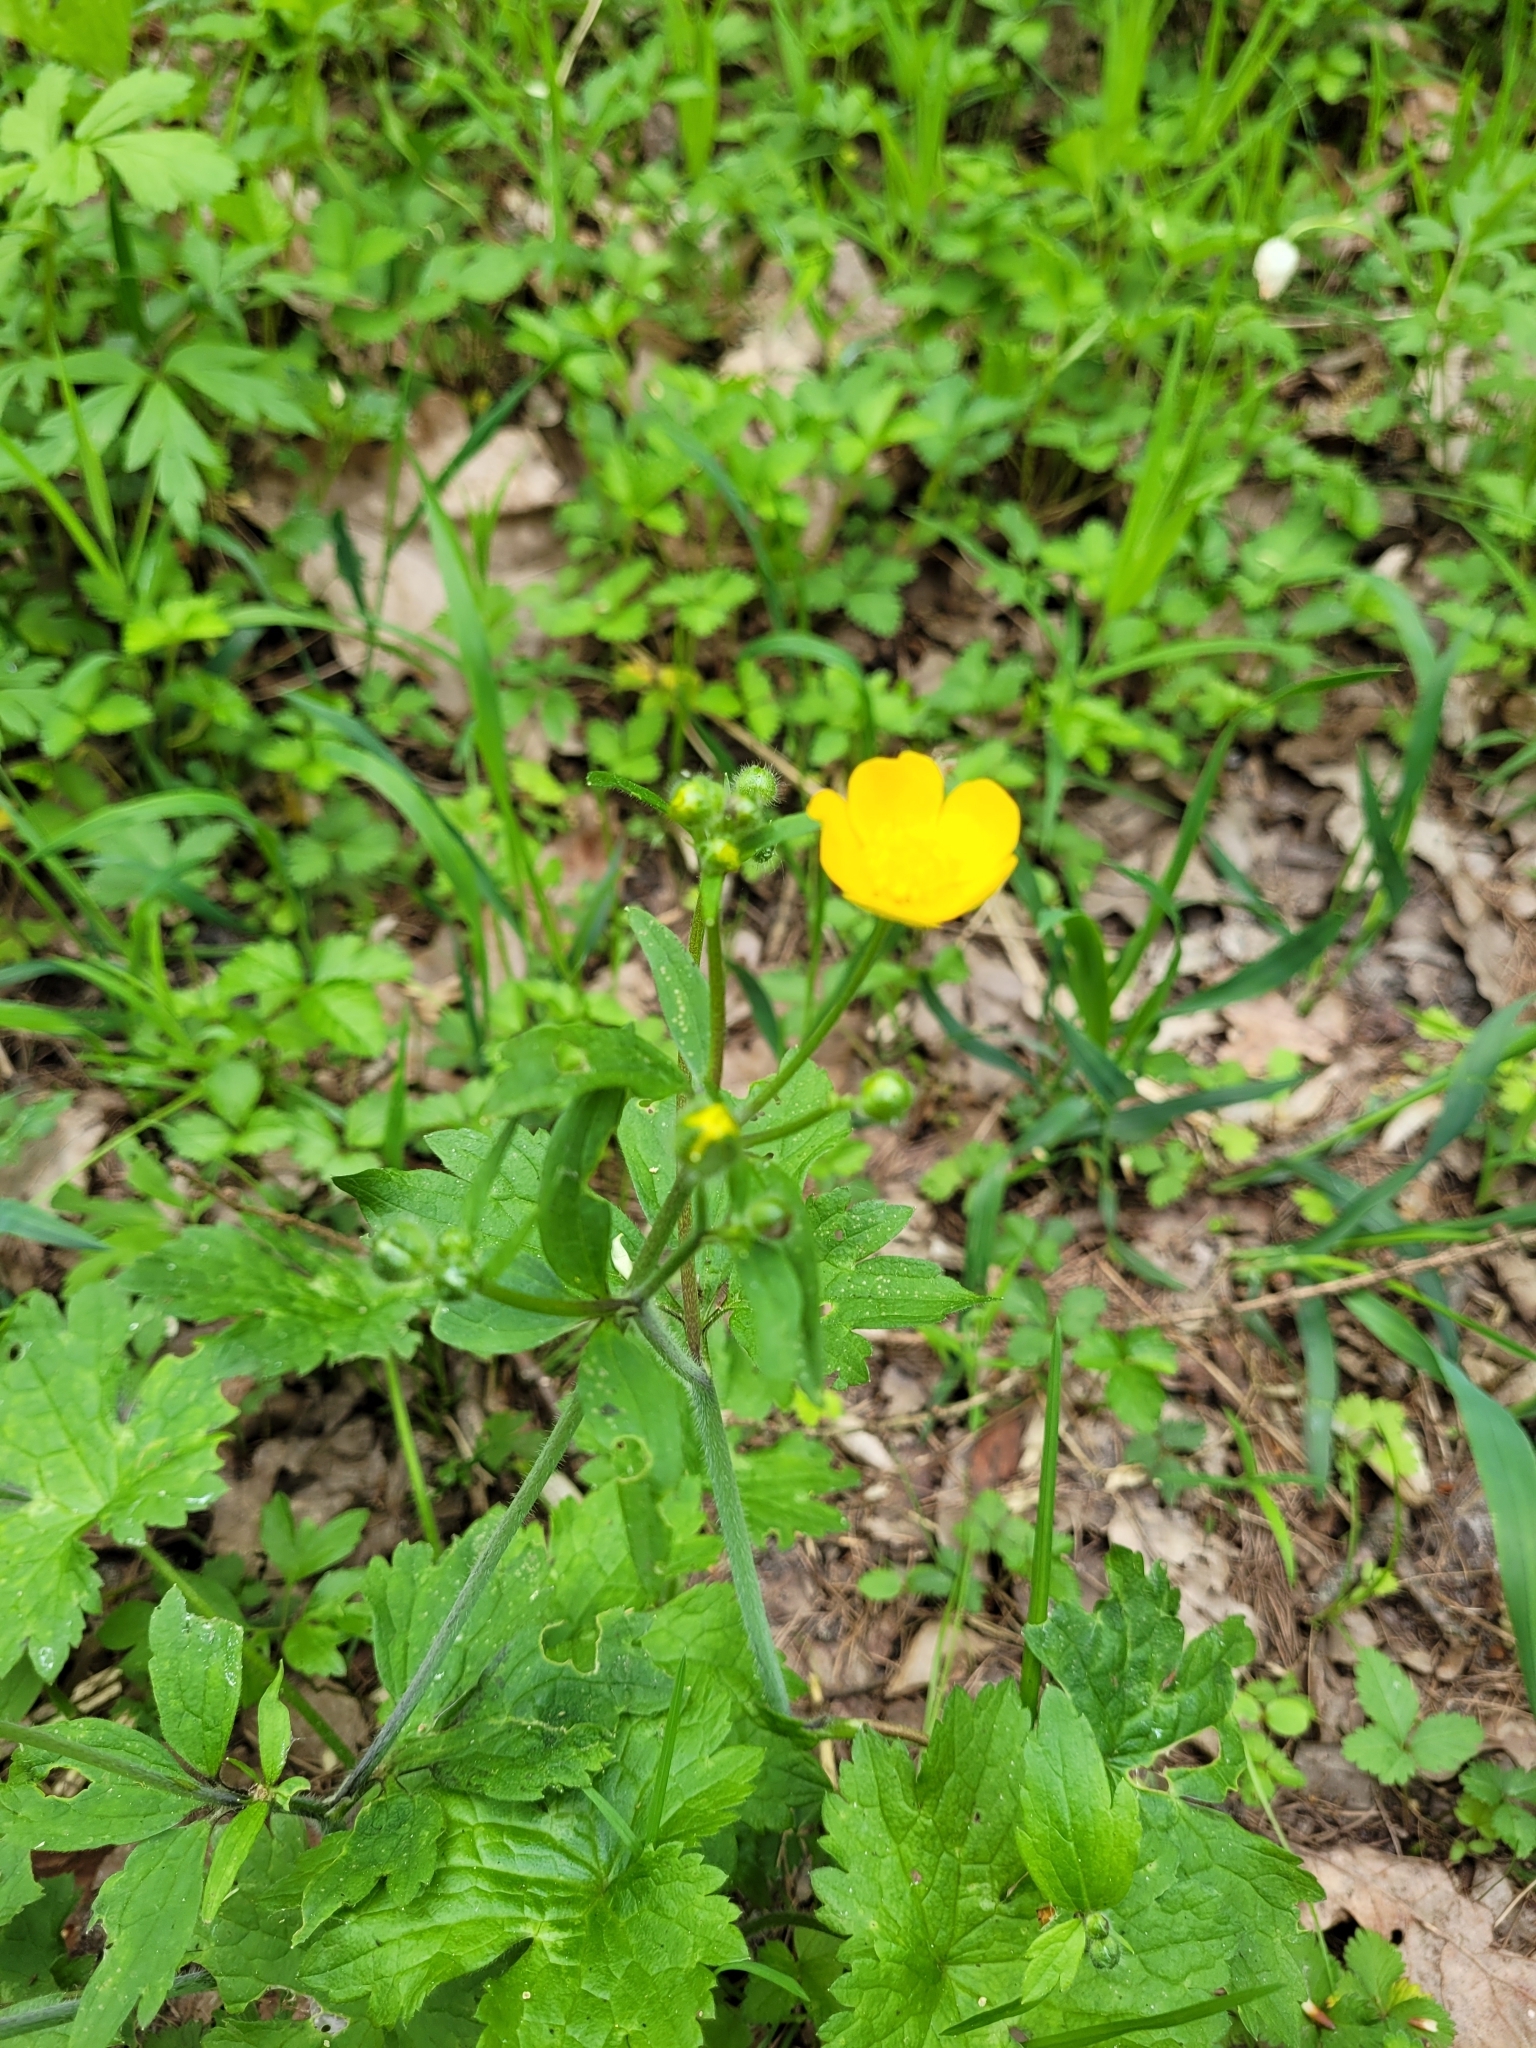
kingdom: Plantae
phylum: Tracheophyta
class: Magnoliopsida
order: Ranunculales
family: Ranunculaceae
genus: Ranunculus
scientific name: Ranunculus lanuginosus
